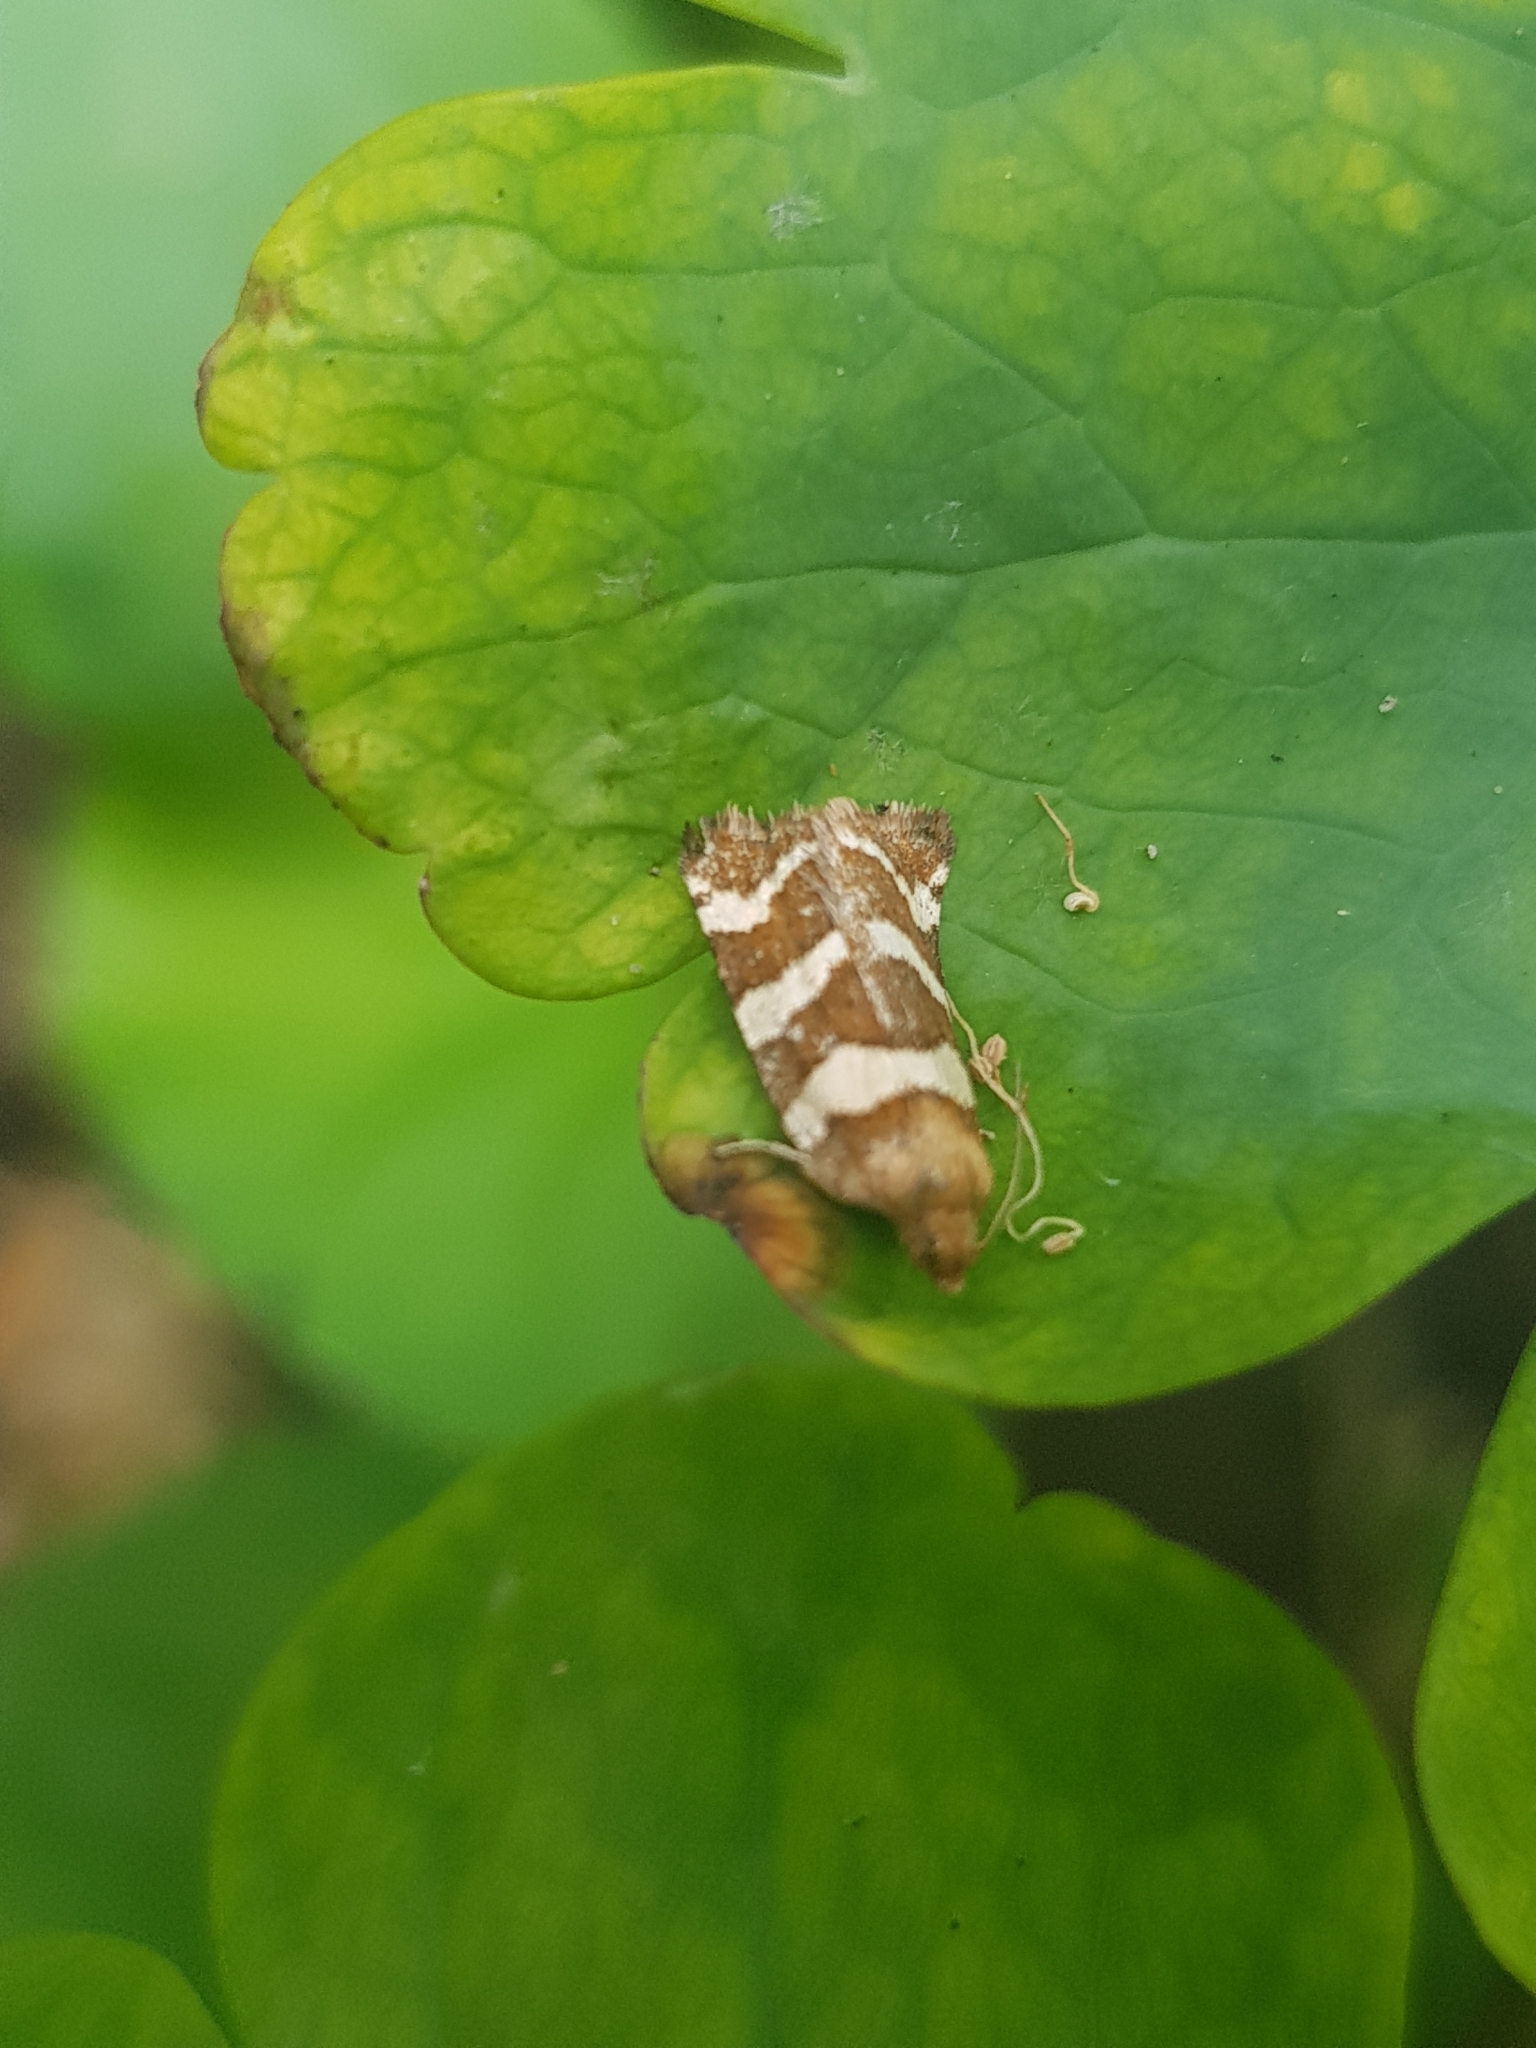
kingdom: Animalia
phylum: Arthropoda
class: Insecta
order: Lepidoptera
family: Tortricidae
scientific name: Tortricidae
